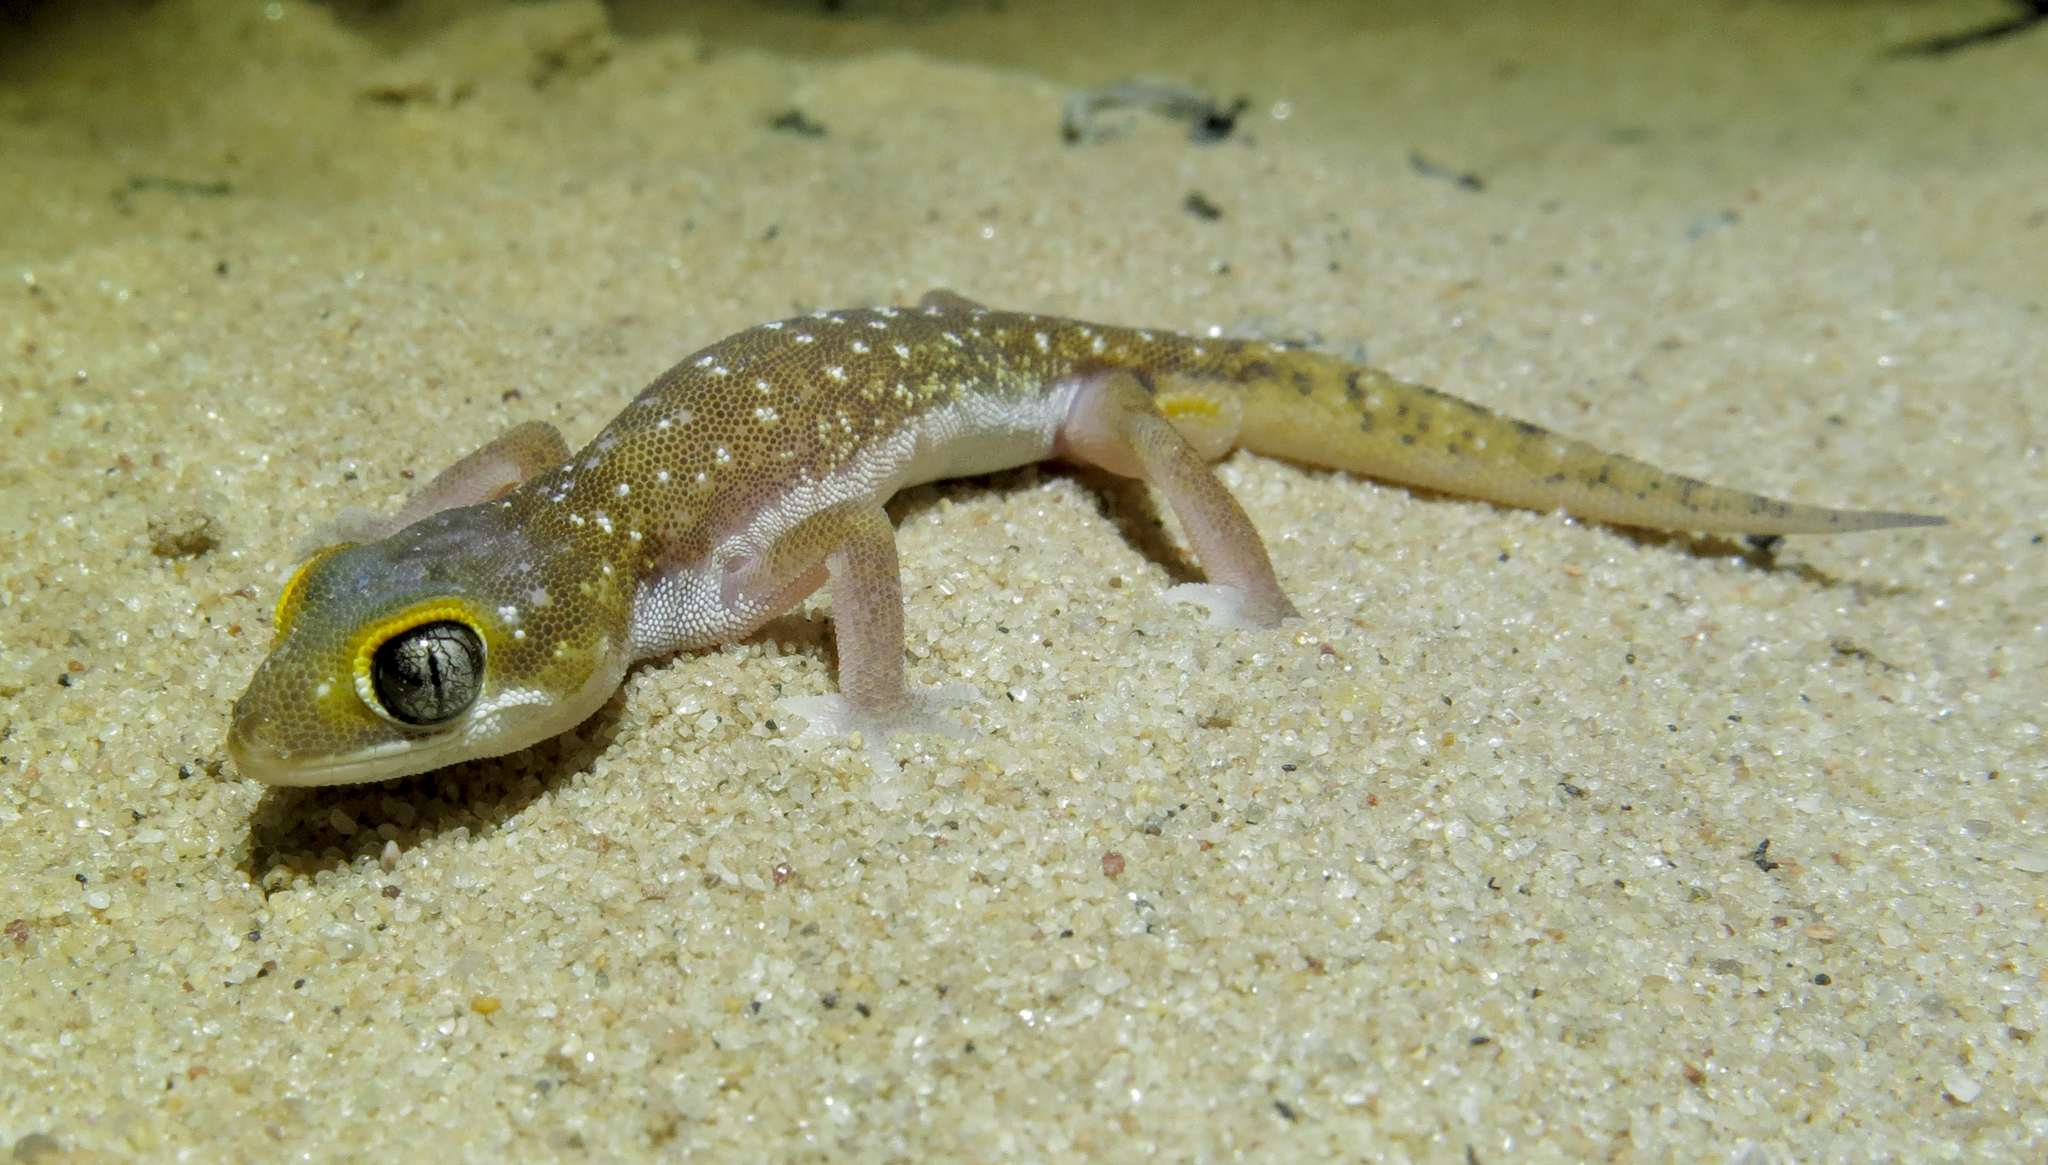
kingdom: Animalia
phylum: Chordata
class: Squamata
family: Gekkonidae
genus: Pachydactylus
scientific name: Pachydactylus austeni
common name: Austen's gecko
